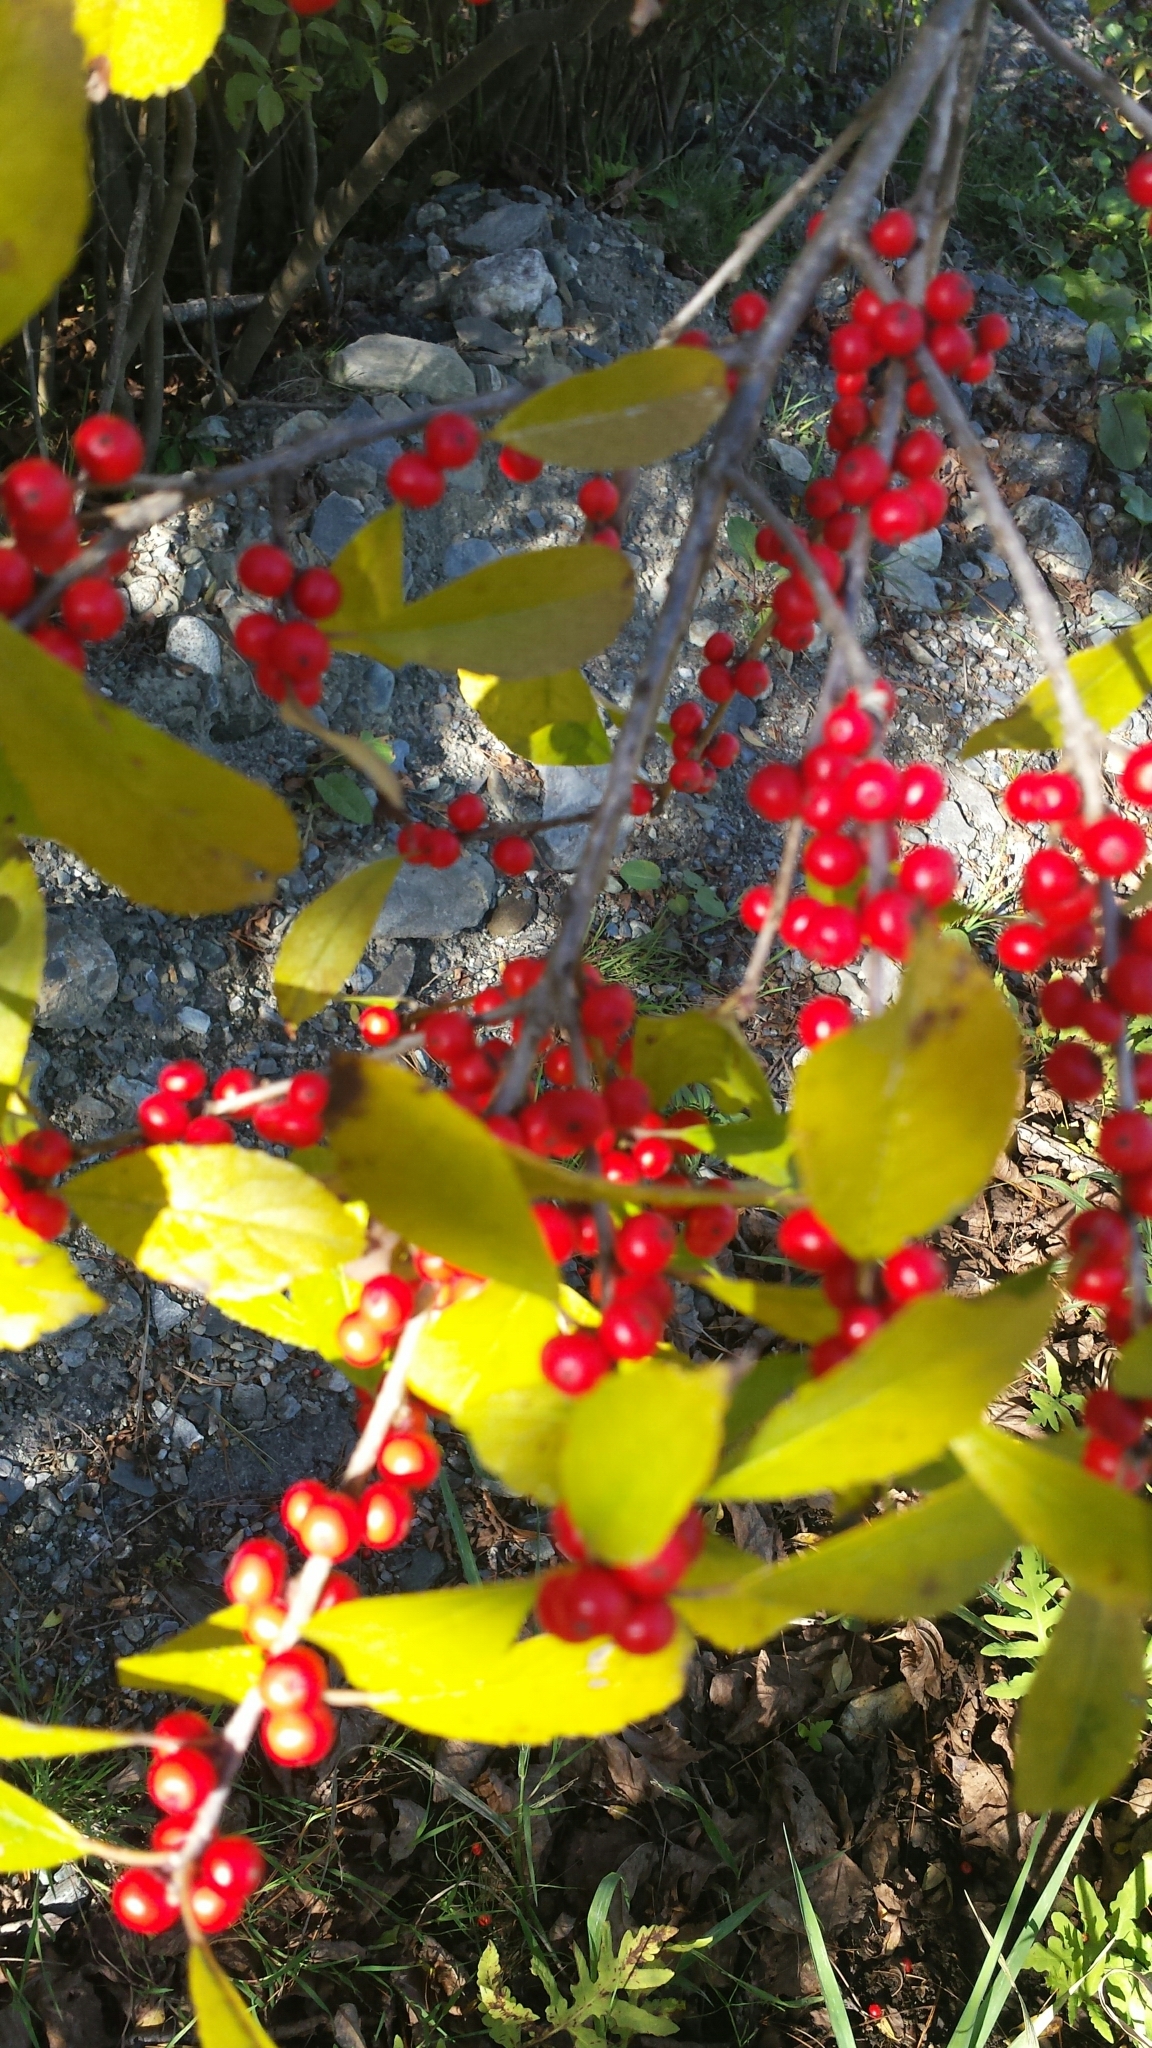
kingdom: Plantae
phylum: Tracheophyta
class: Magnoliopsida
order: Aquifoliales
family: Aquifoliaceae
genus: Ilex
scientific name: Ilex verticillata
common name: Virginia winterberry
